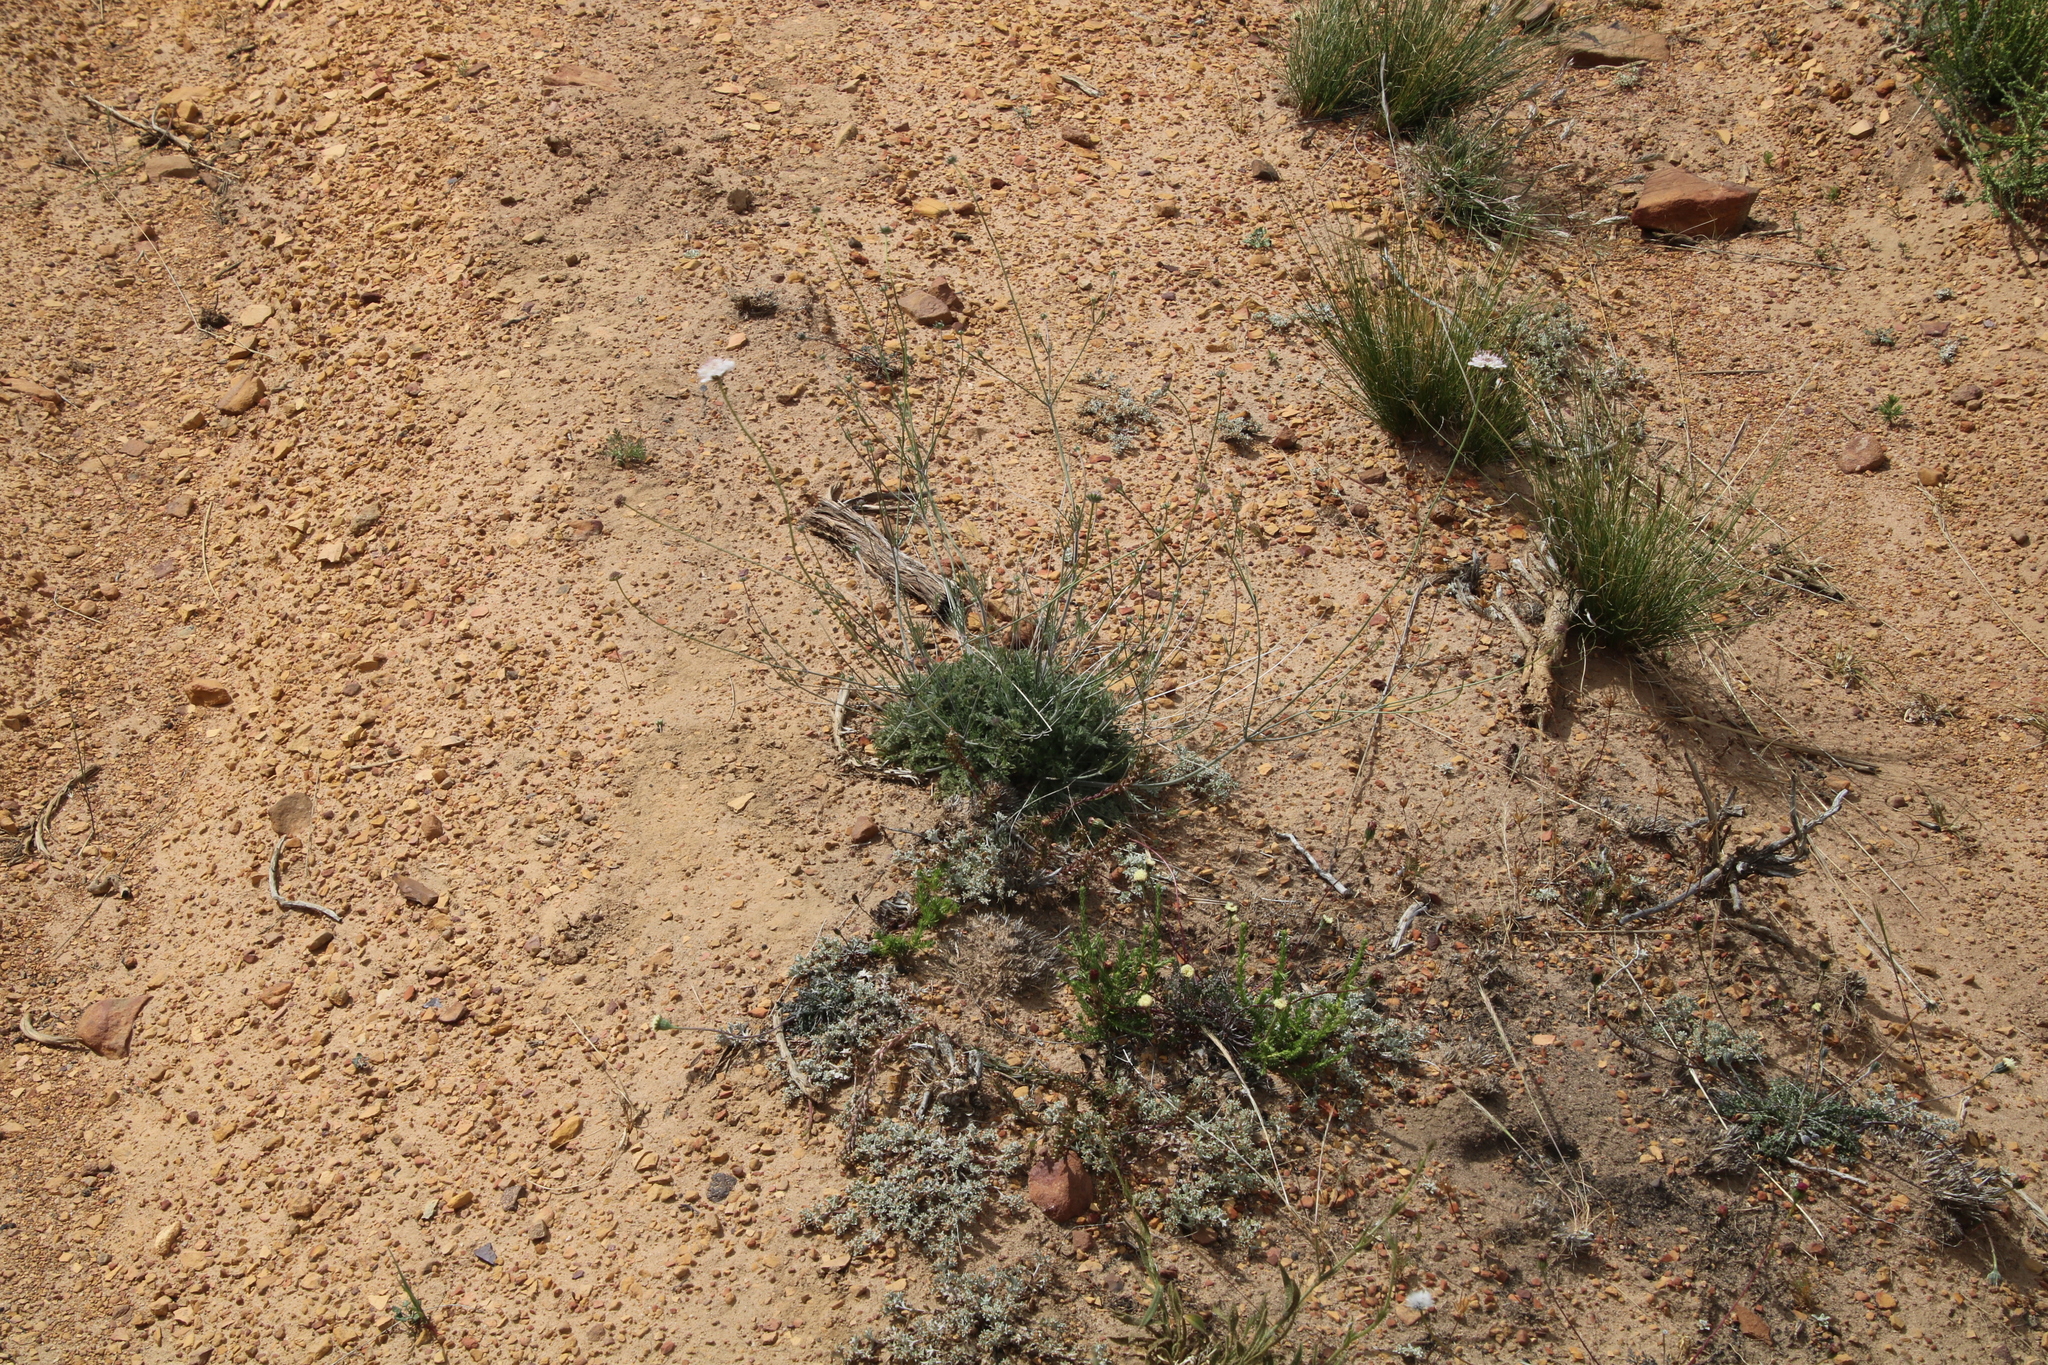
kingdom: Plantae
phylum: Tracheophyta
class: Magnoliopsida
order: Dipsacales
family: Caprifoliaceae
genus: Scabiosa
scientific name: Scabiosa columbaria
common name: Small scabious
